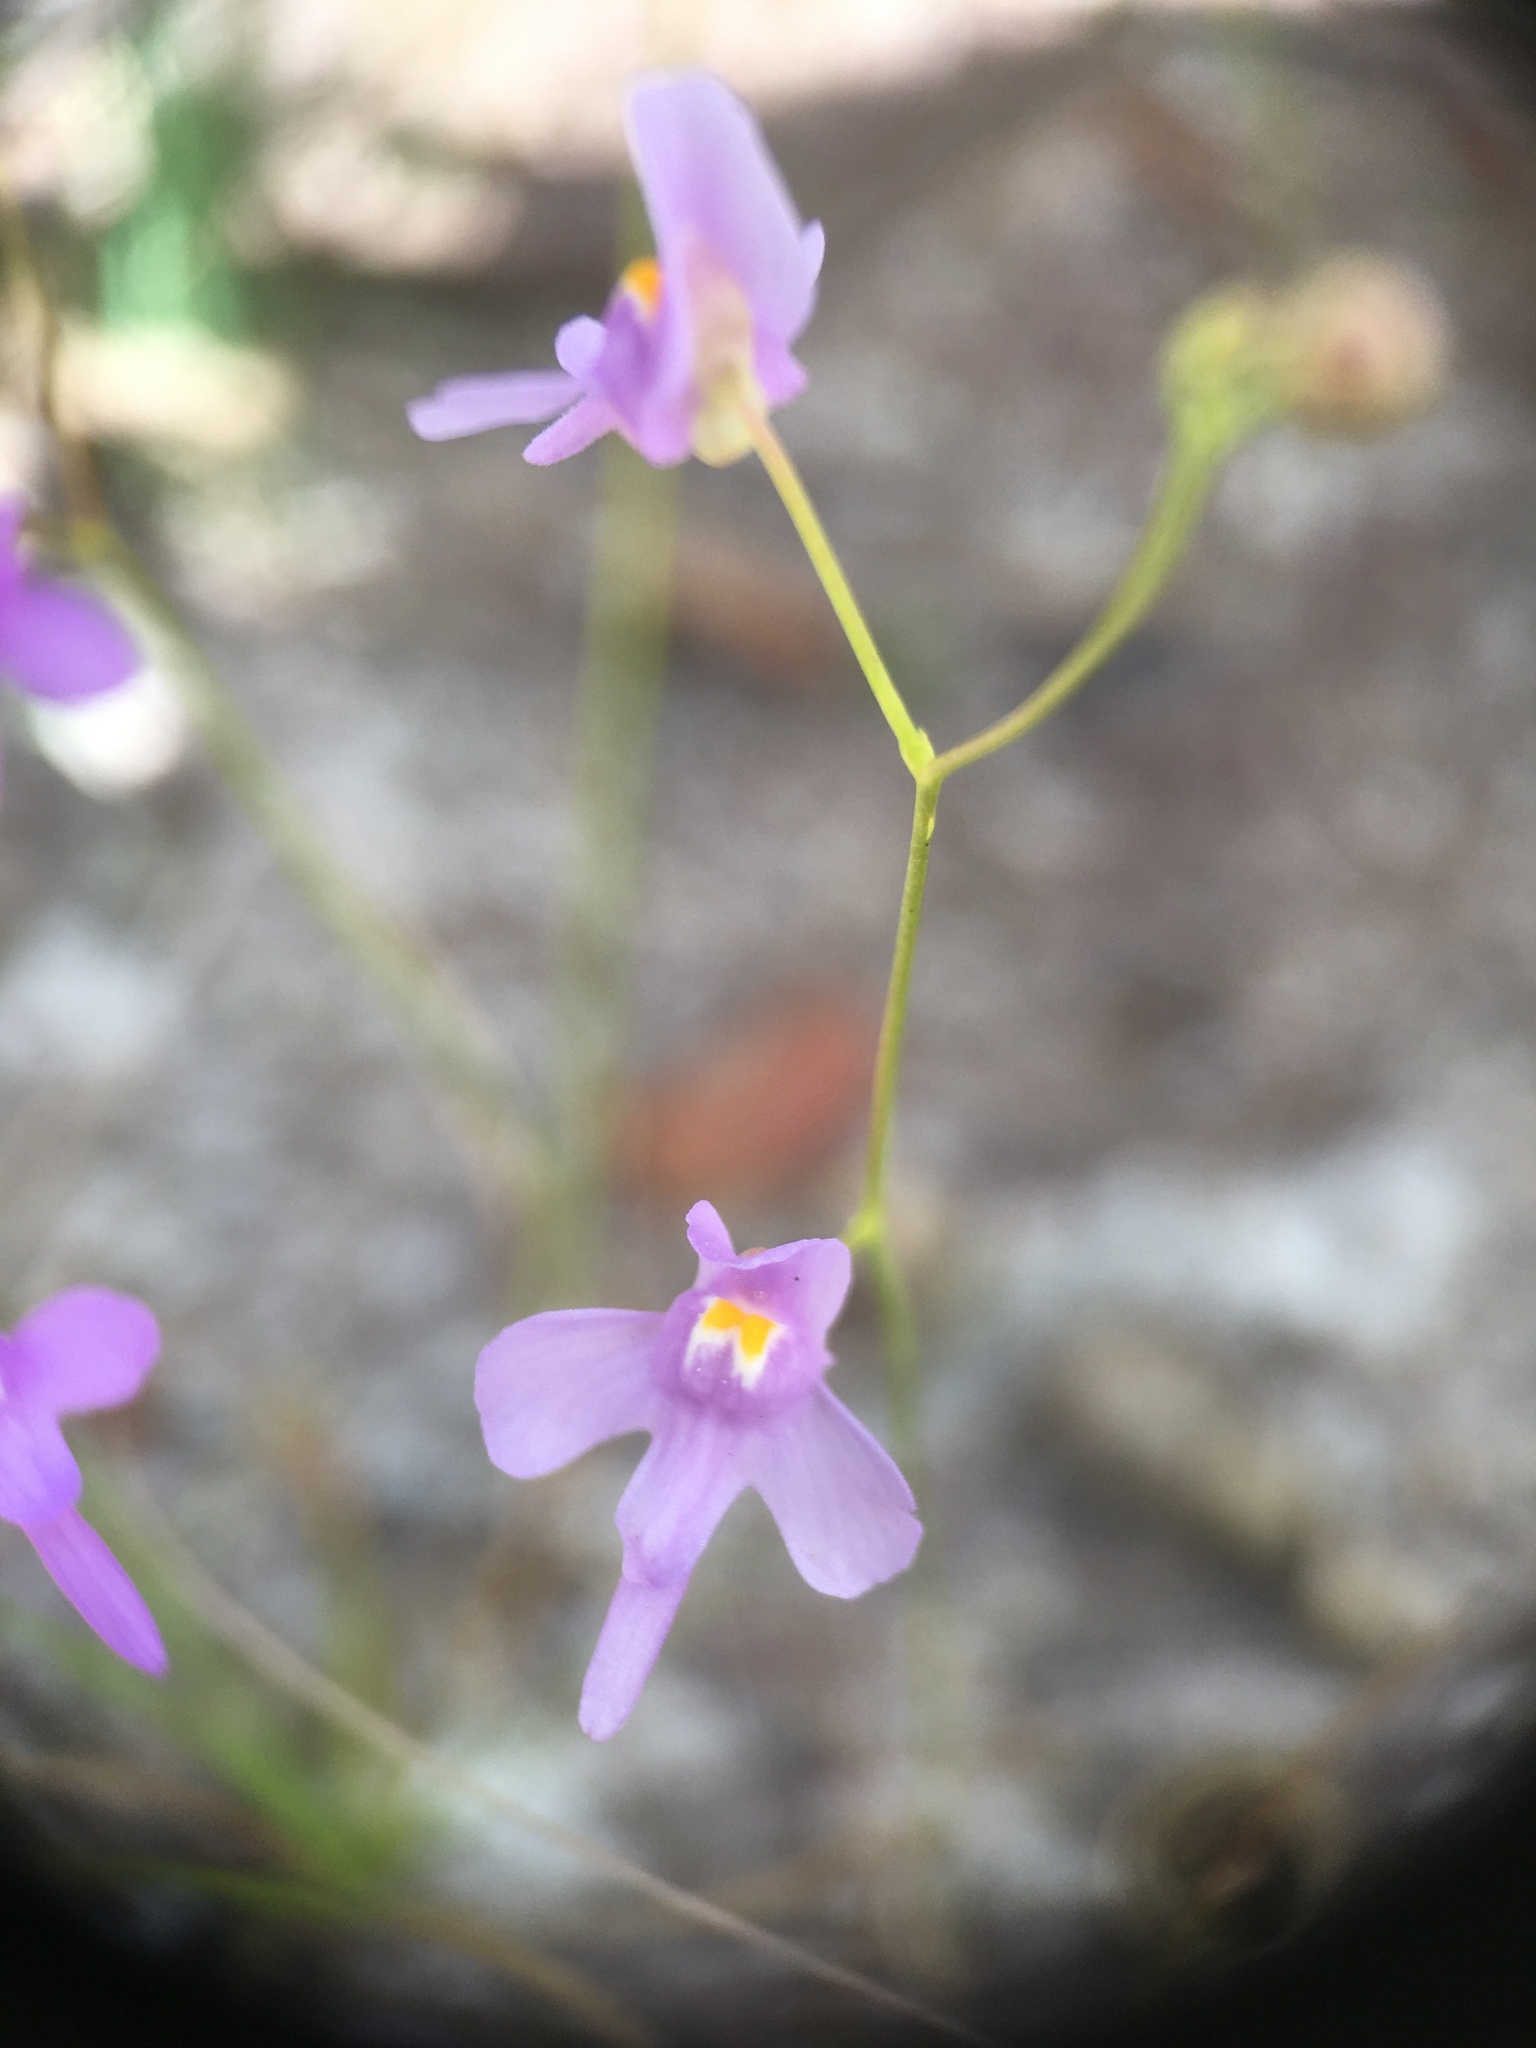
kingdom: Plantae
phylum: Tracheophyta
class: Magnoliopsida
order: Lamiales
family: Lentibulariaceae
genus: Utricularia
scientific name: Utricularia amethystina
